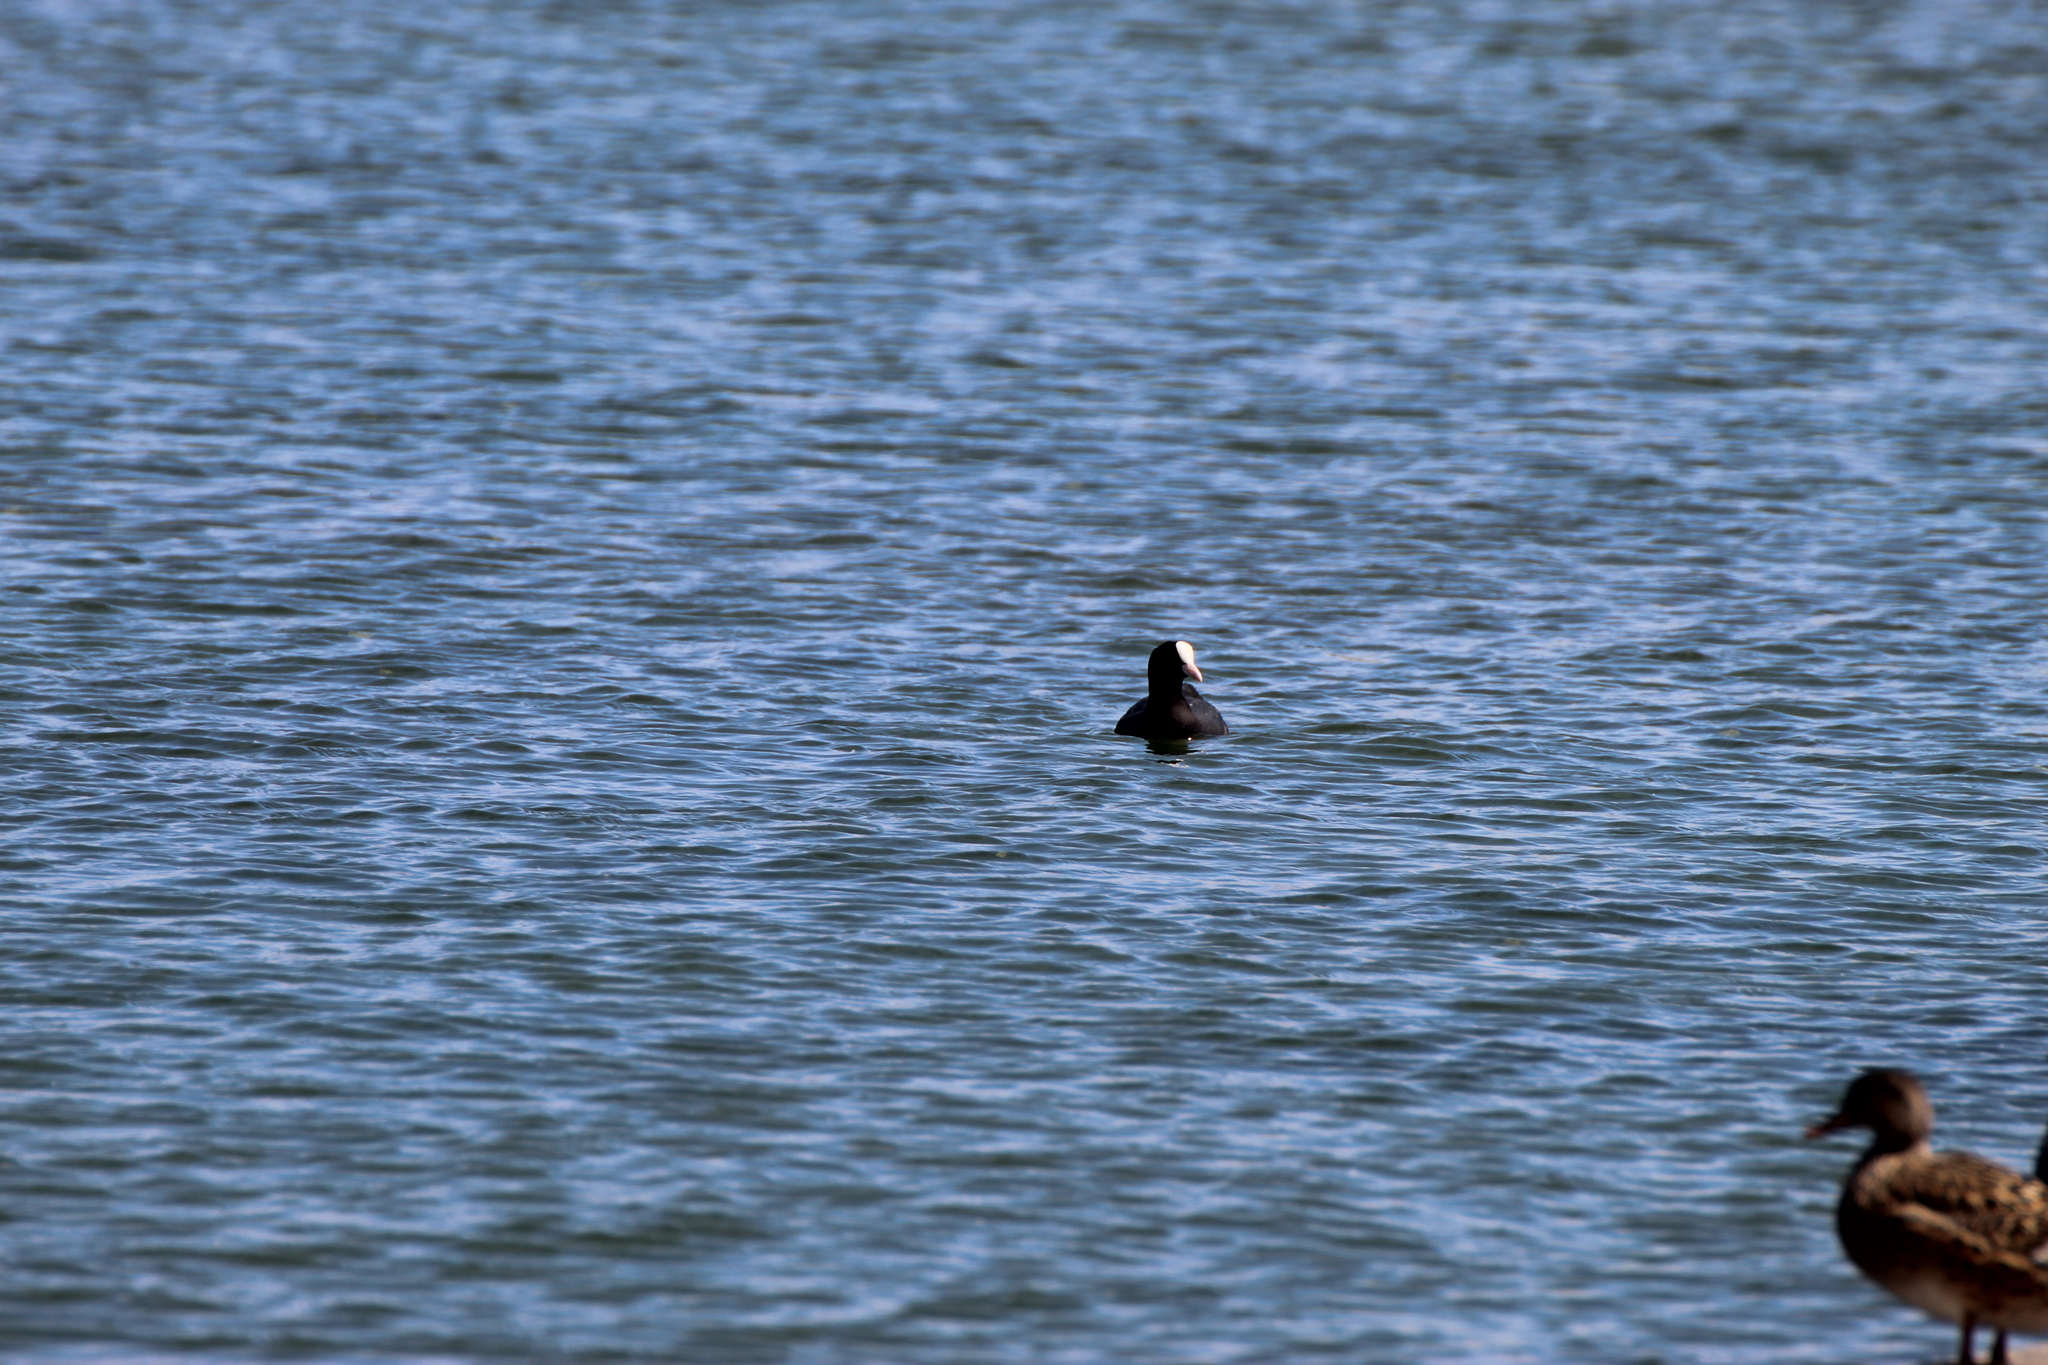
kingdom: Animalia
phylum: Chordata
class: Aves
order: Gruiformes
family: Rallidae
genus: Fulica
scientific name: Fulica atra
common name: Eurasian coot
